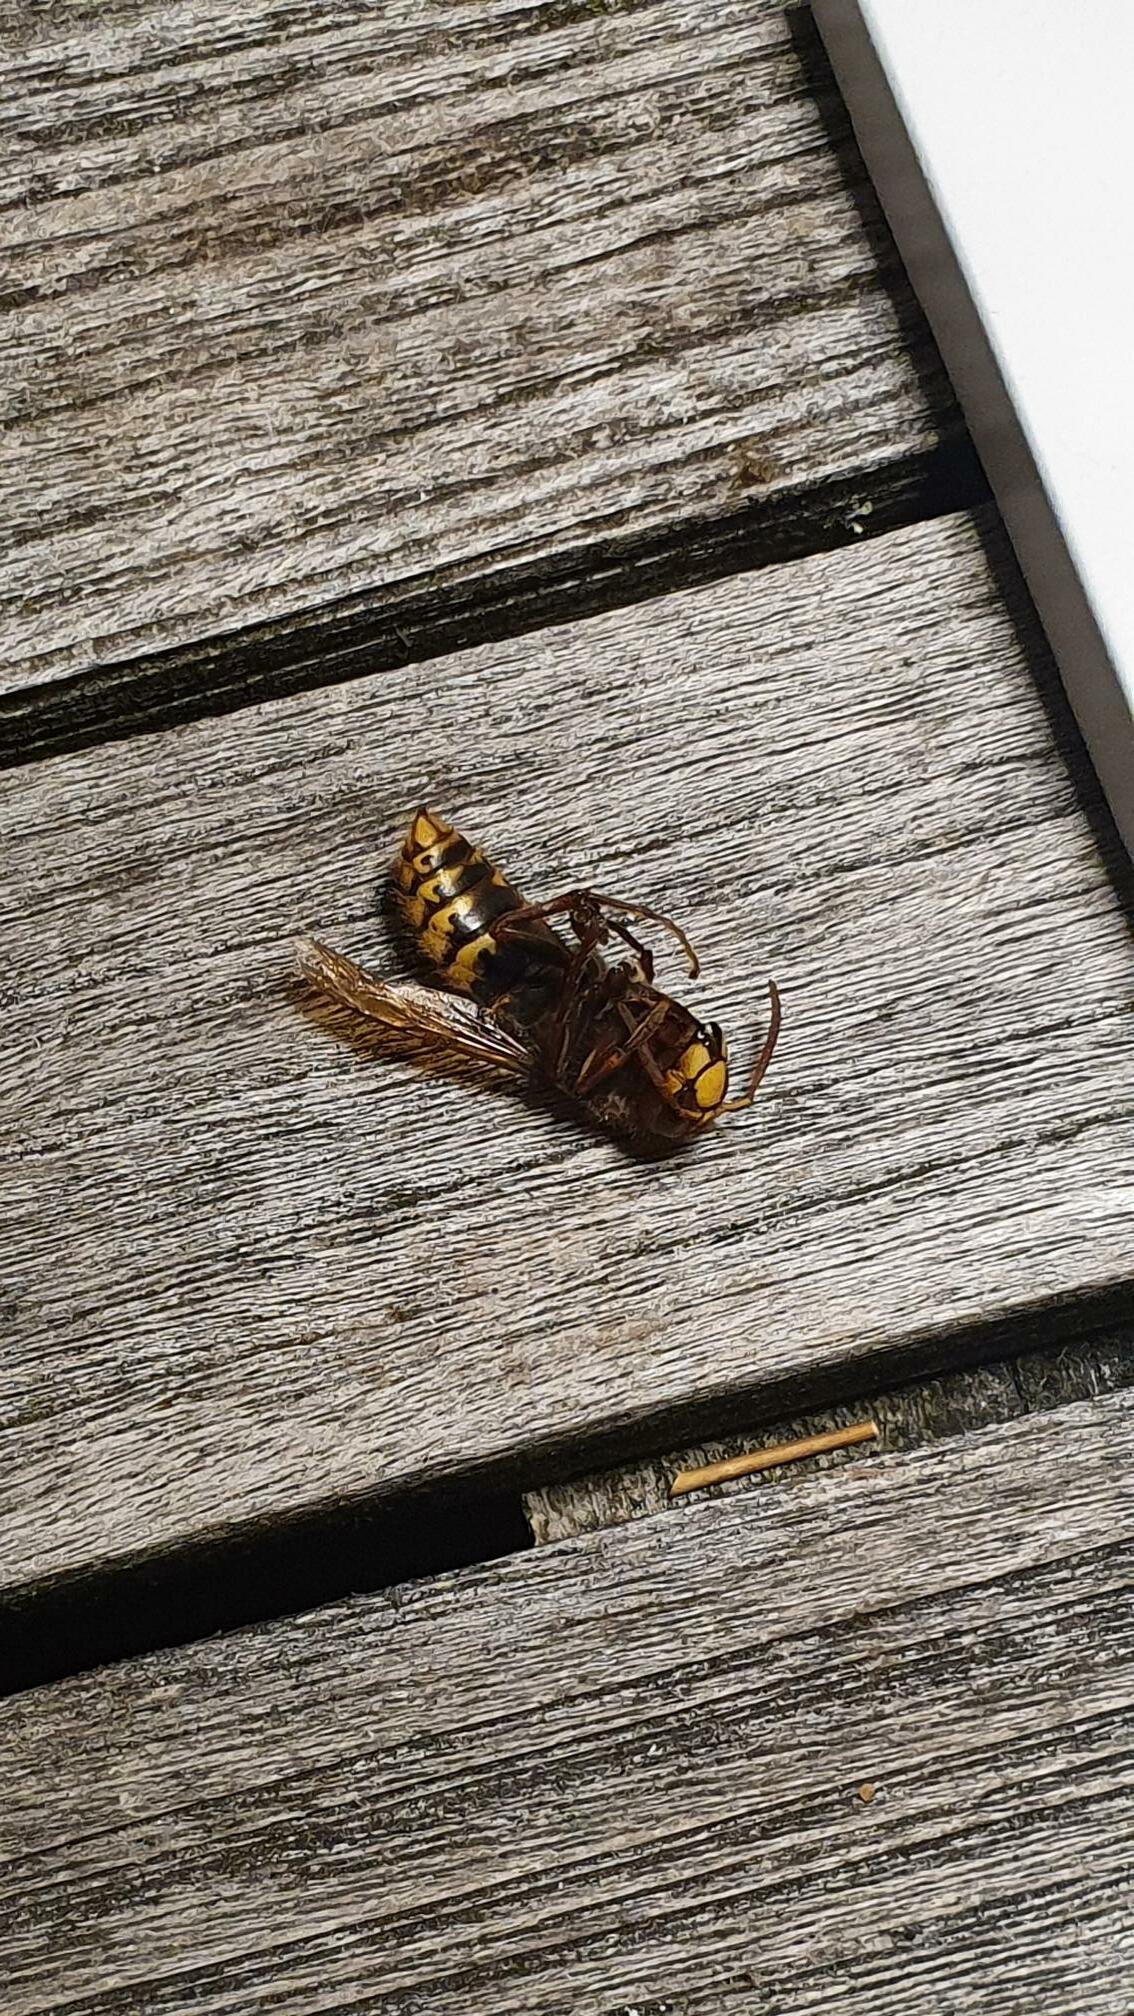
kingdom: Animalia
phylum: Arthropoda
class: Insecta
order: Hymenoptera
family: Vespidae
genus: Vespa
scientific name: Vespa crabro
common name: Hornet
